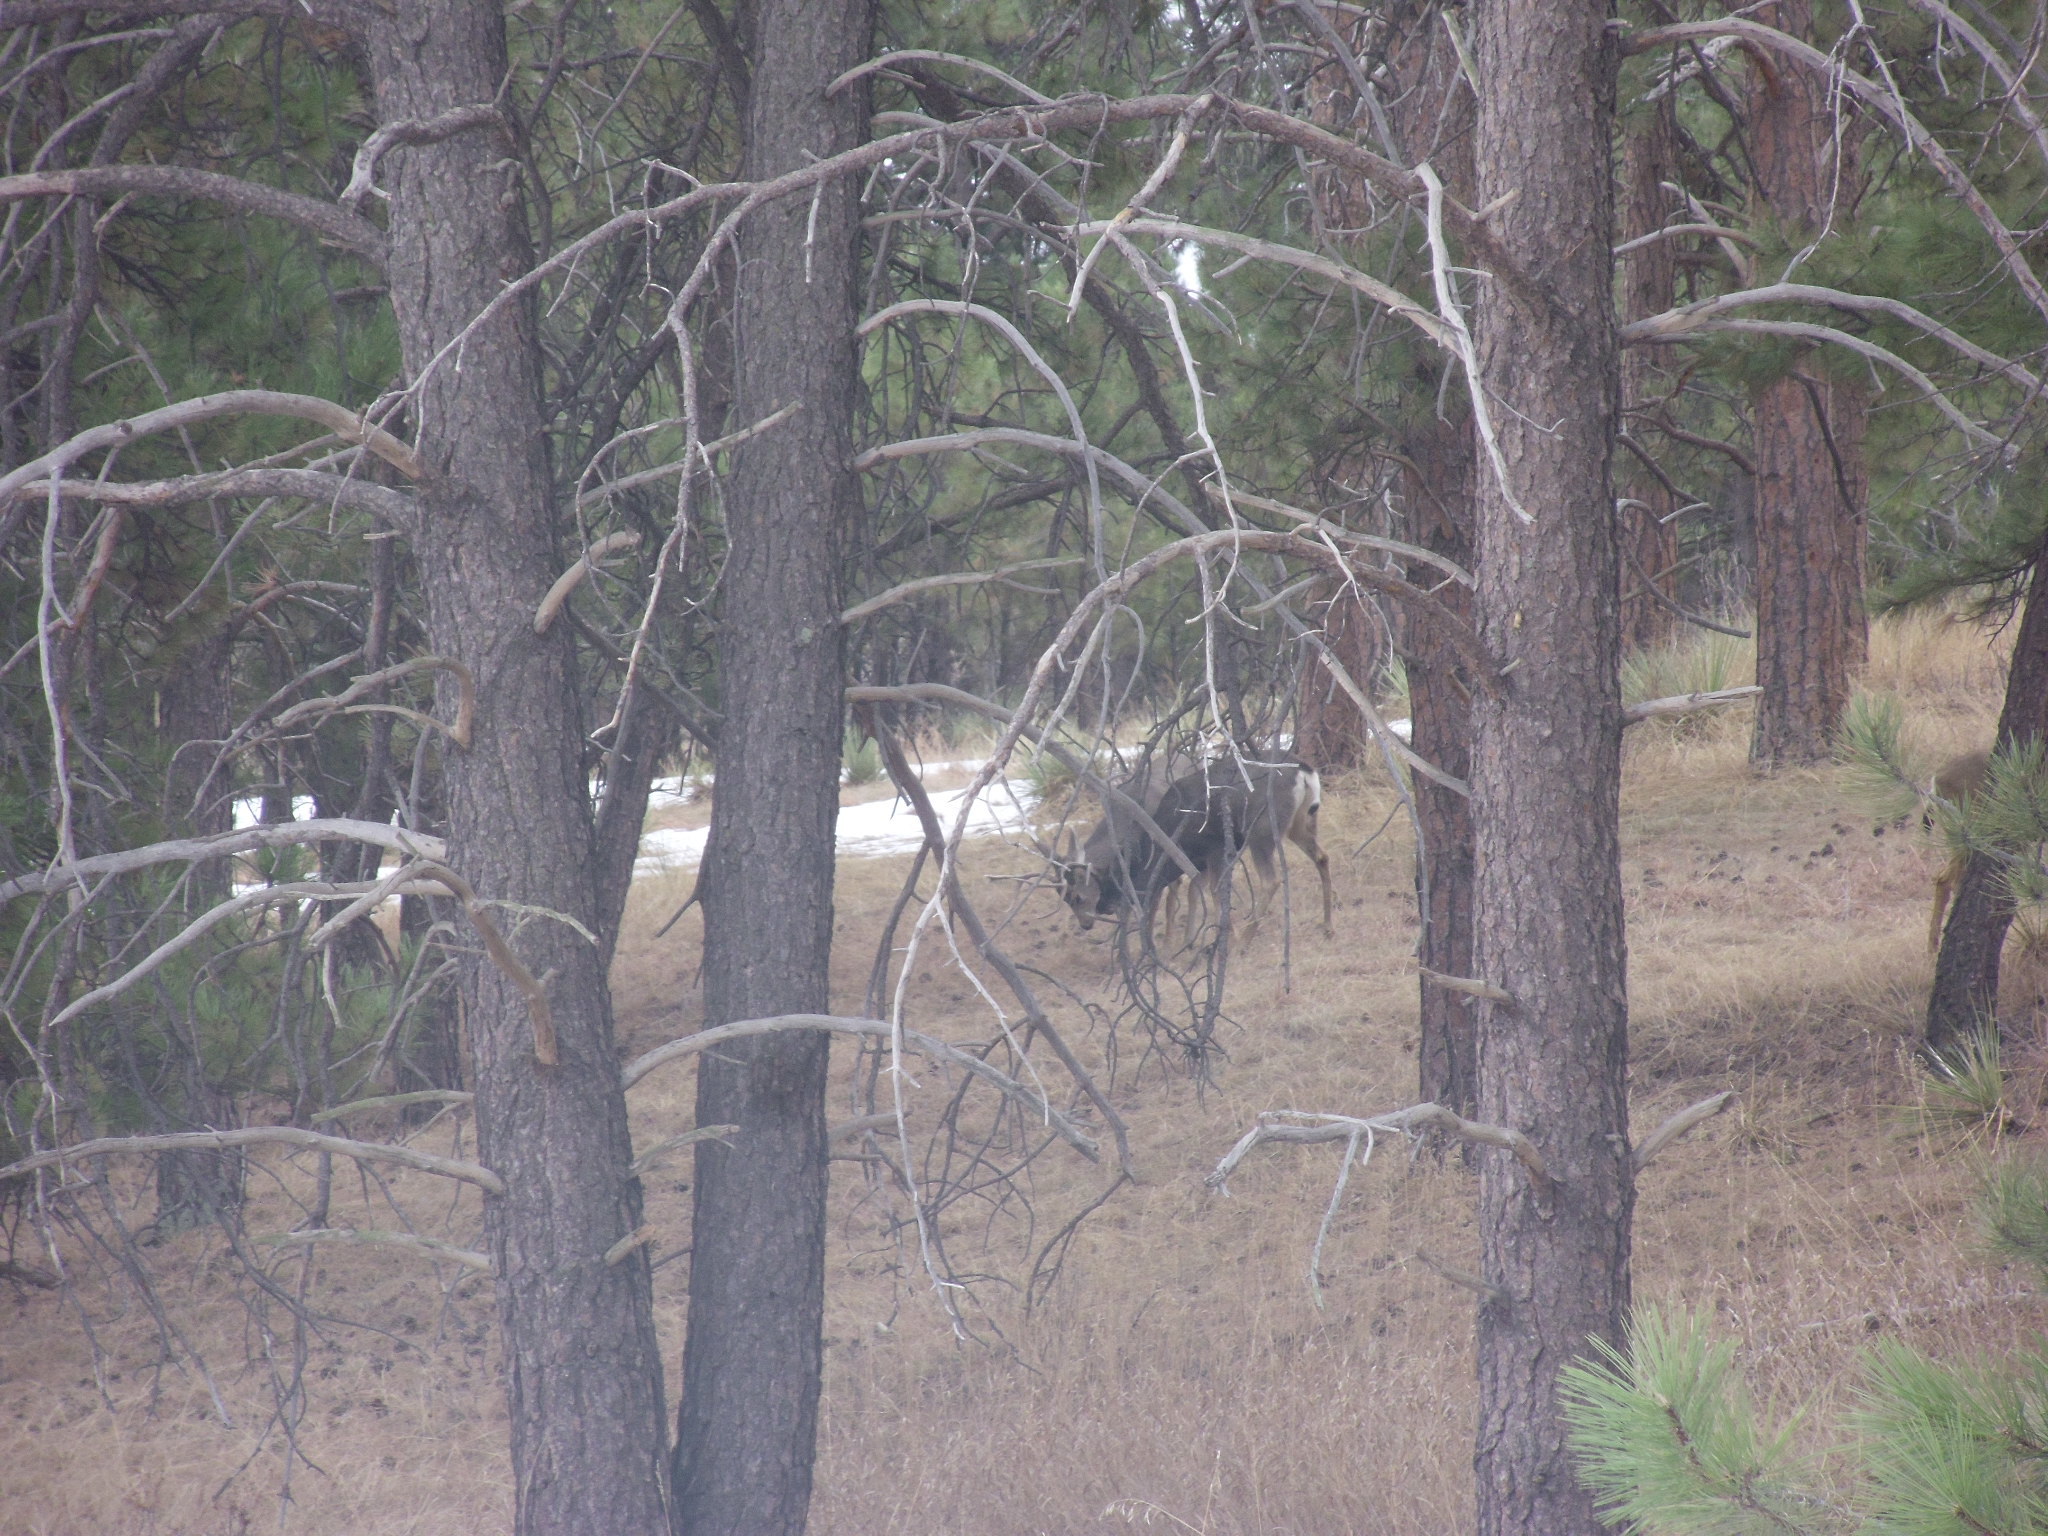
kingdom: Animalia
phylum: Chordata
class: Mammalia
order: Artiodactyla
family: Cervidae
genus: Odocoileus
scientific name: Odocoileus hemionus
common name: Mule deer
